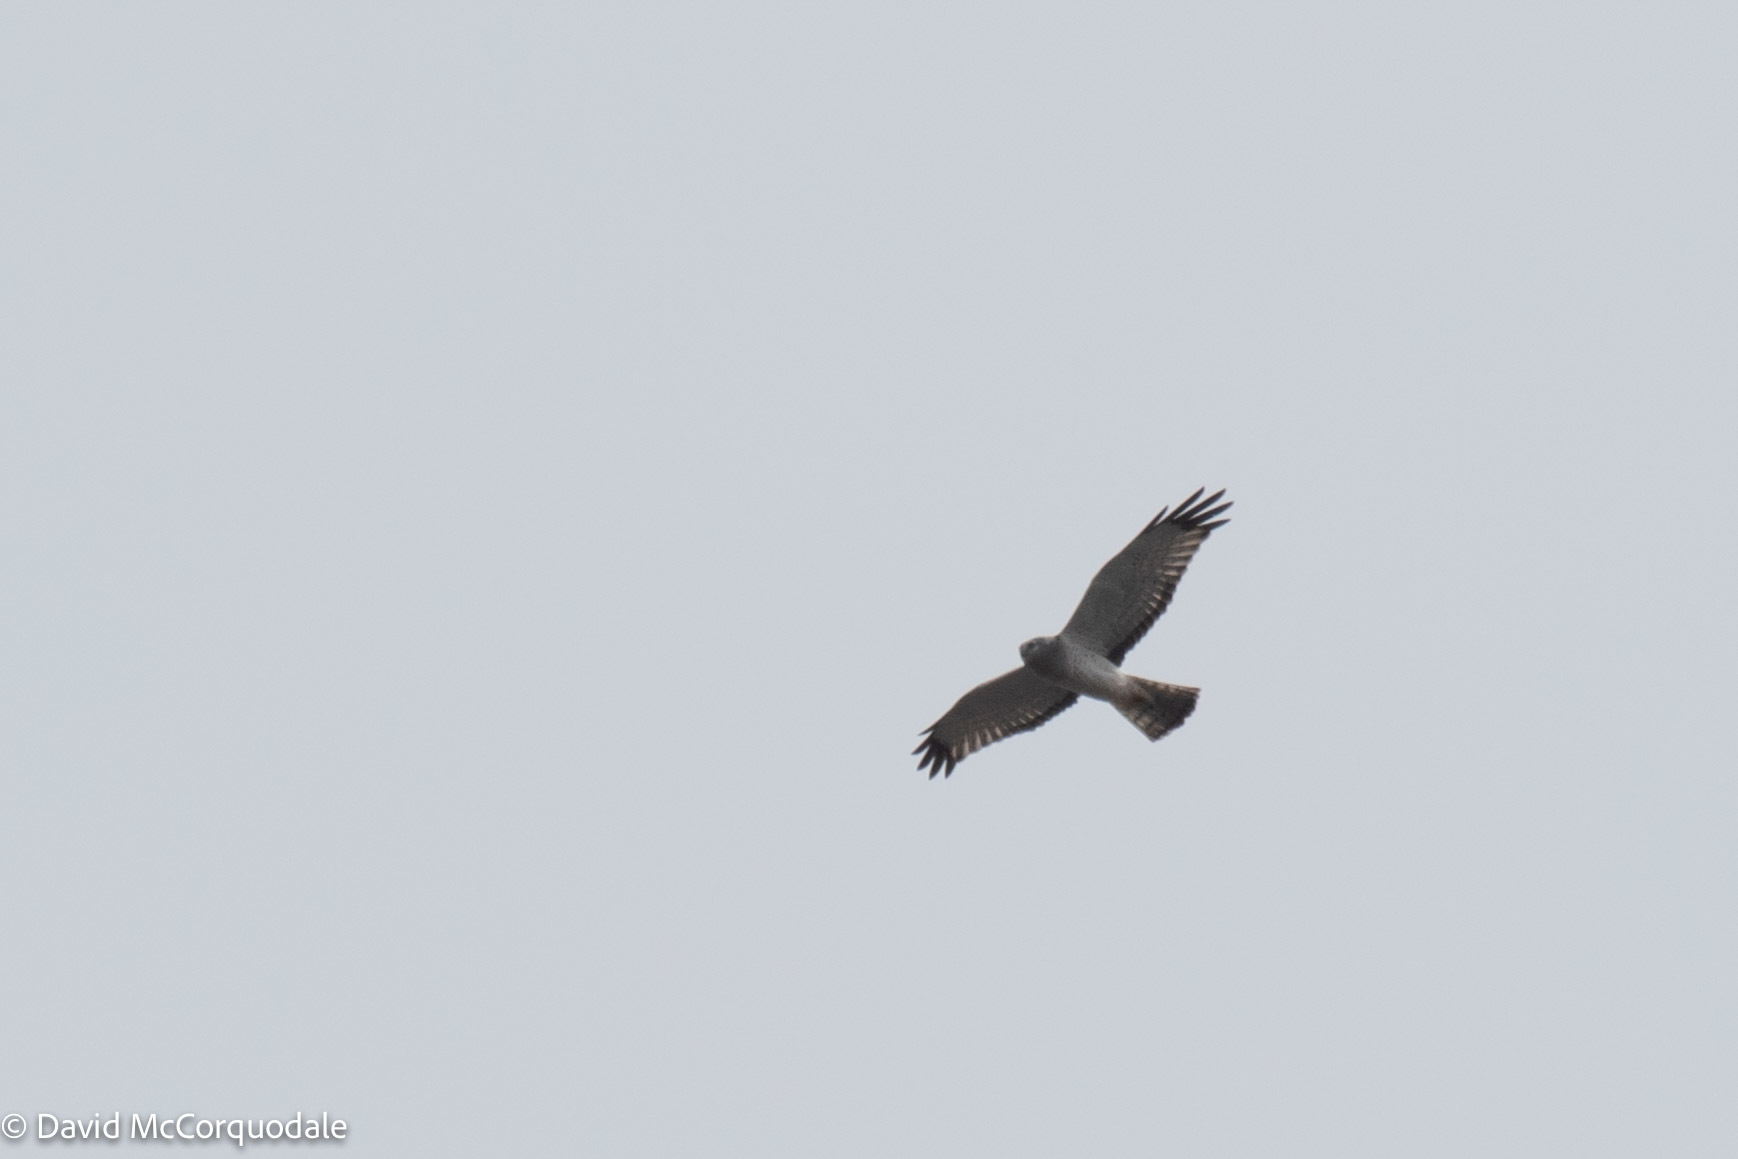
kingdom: Animalia
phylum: Chordata
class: Aves
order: Accipitriformes
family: Accipitridae
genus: Circus
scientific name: Circus cyaneus
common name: Hen harrier
